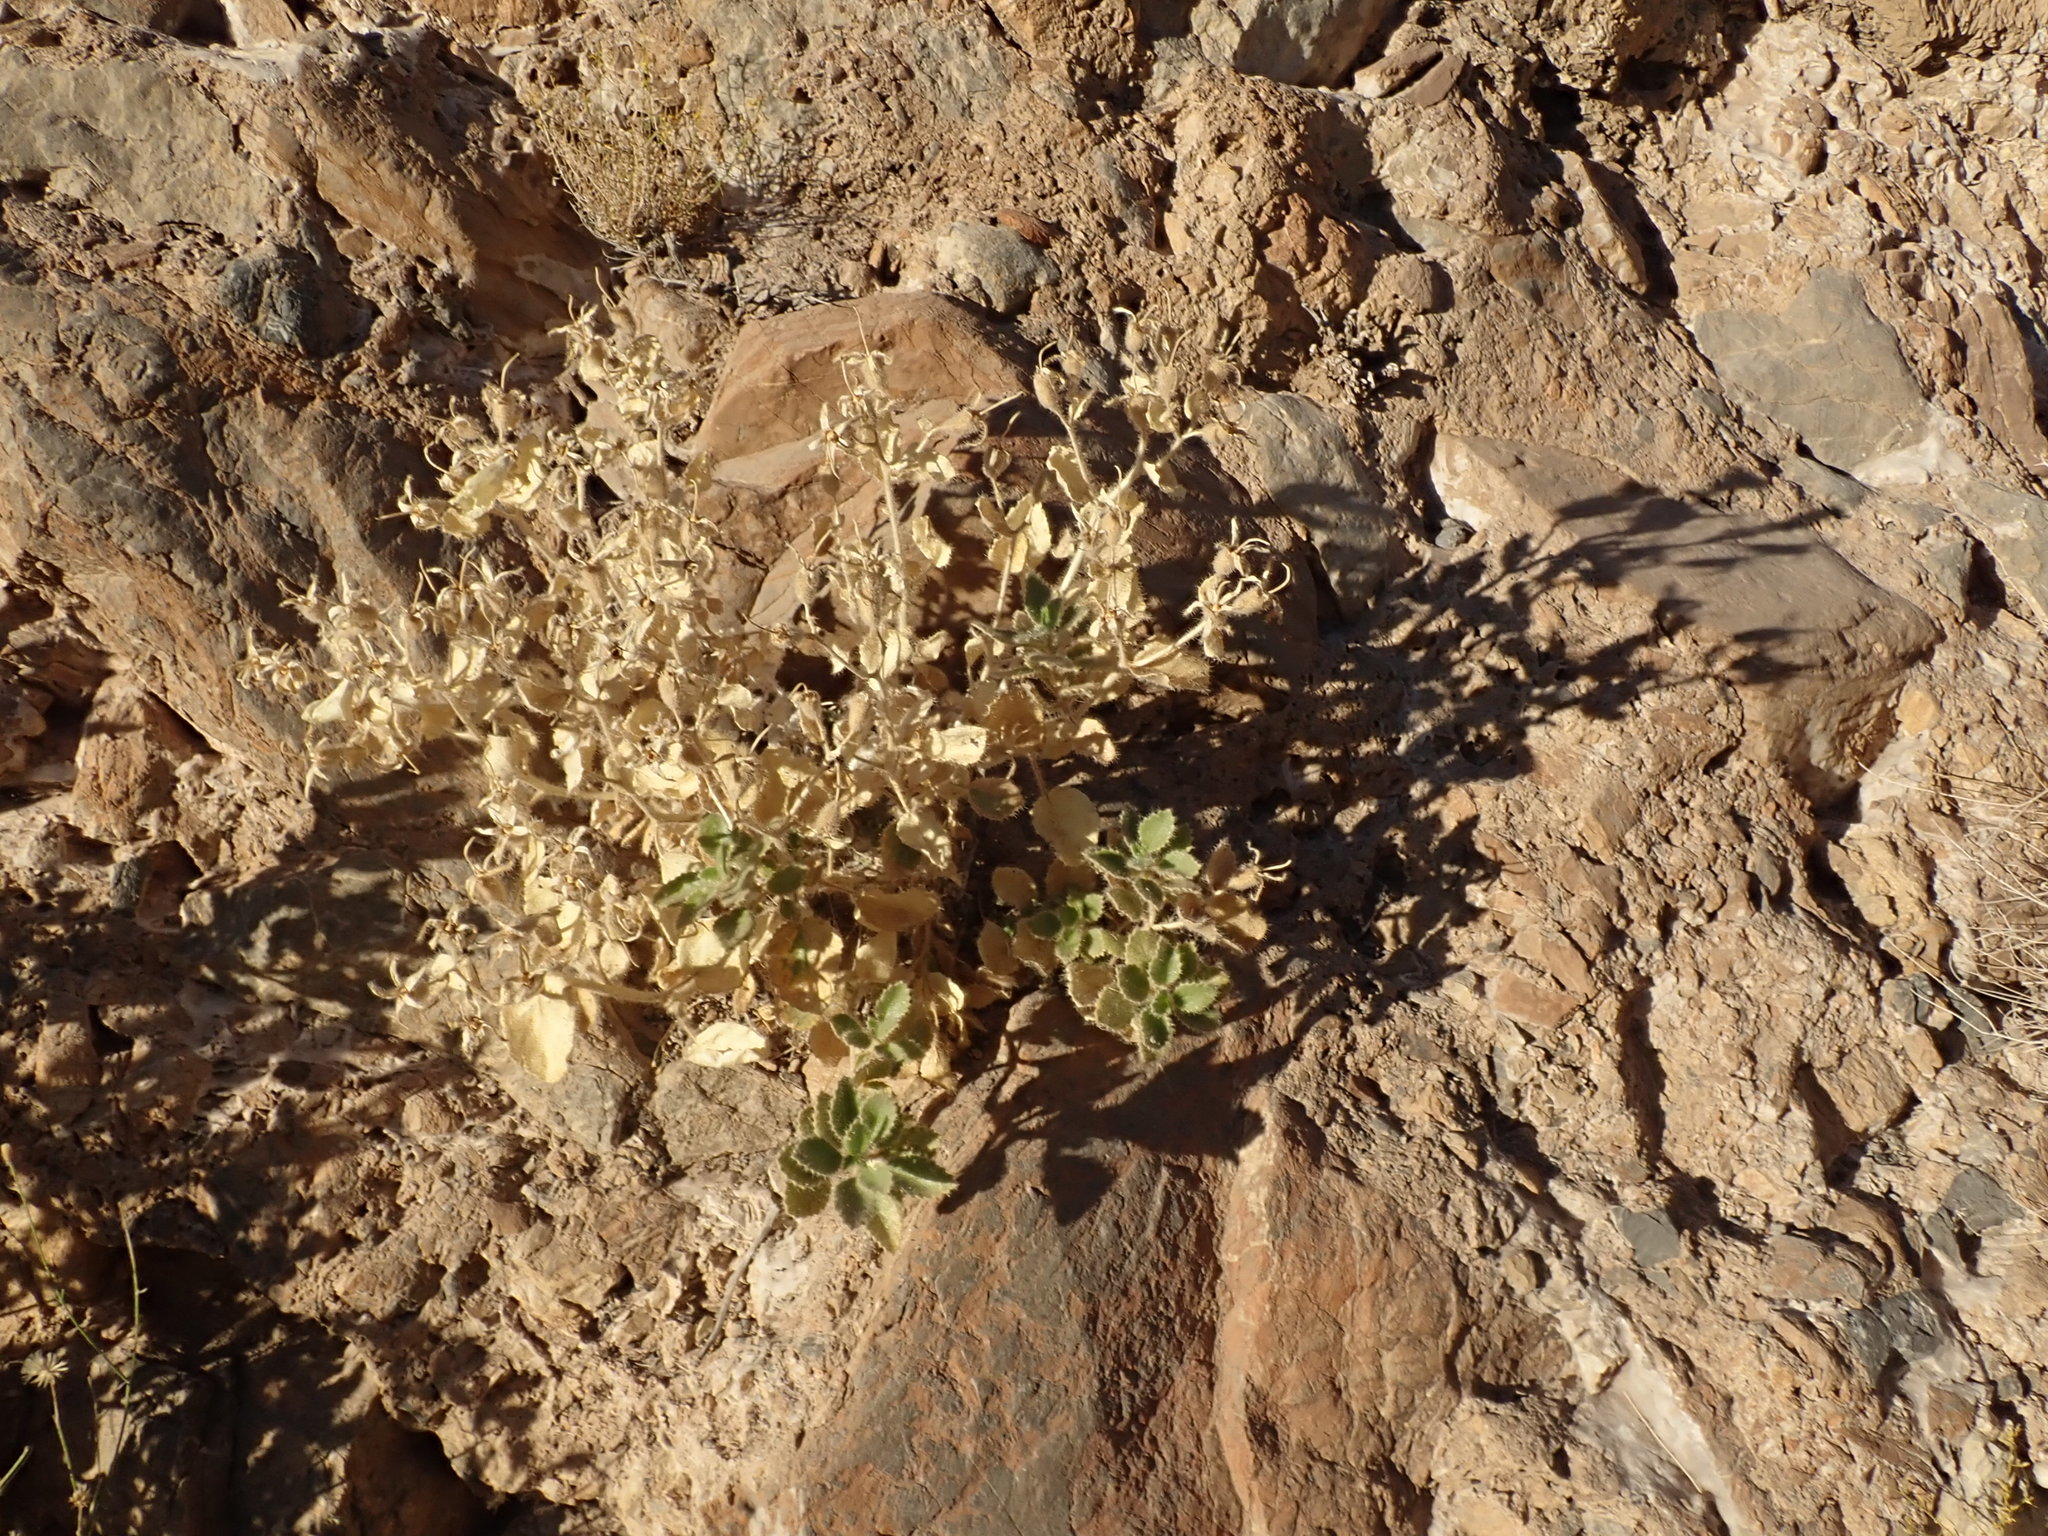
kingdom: Plantae
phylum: Tracheophyta
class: Magnoliopsida
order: Cornales
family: Loasaceae
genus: Eucnide
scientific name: Eucnide urens
